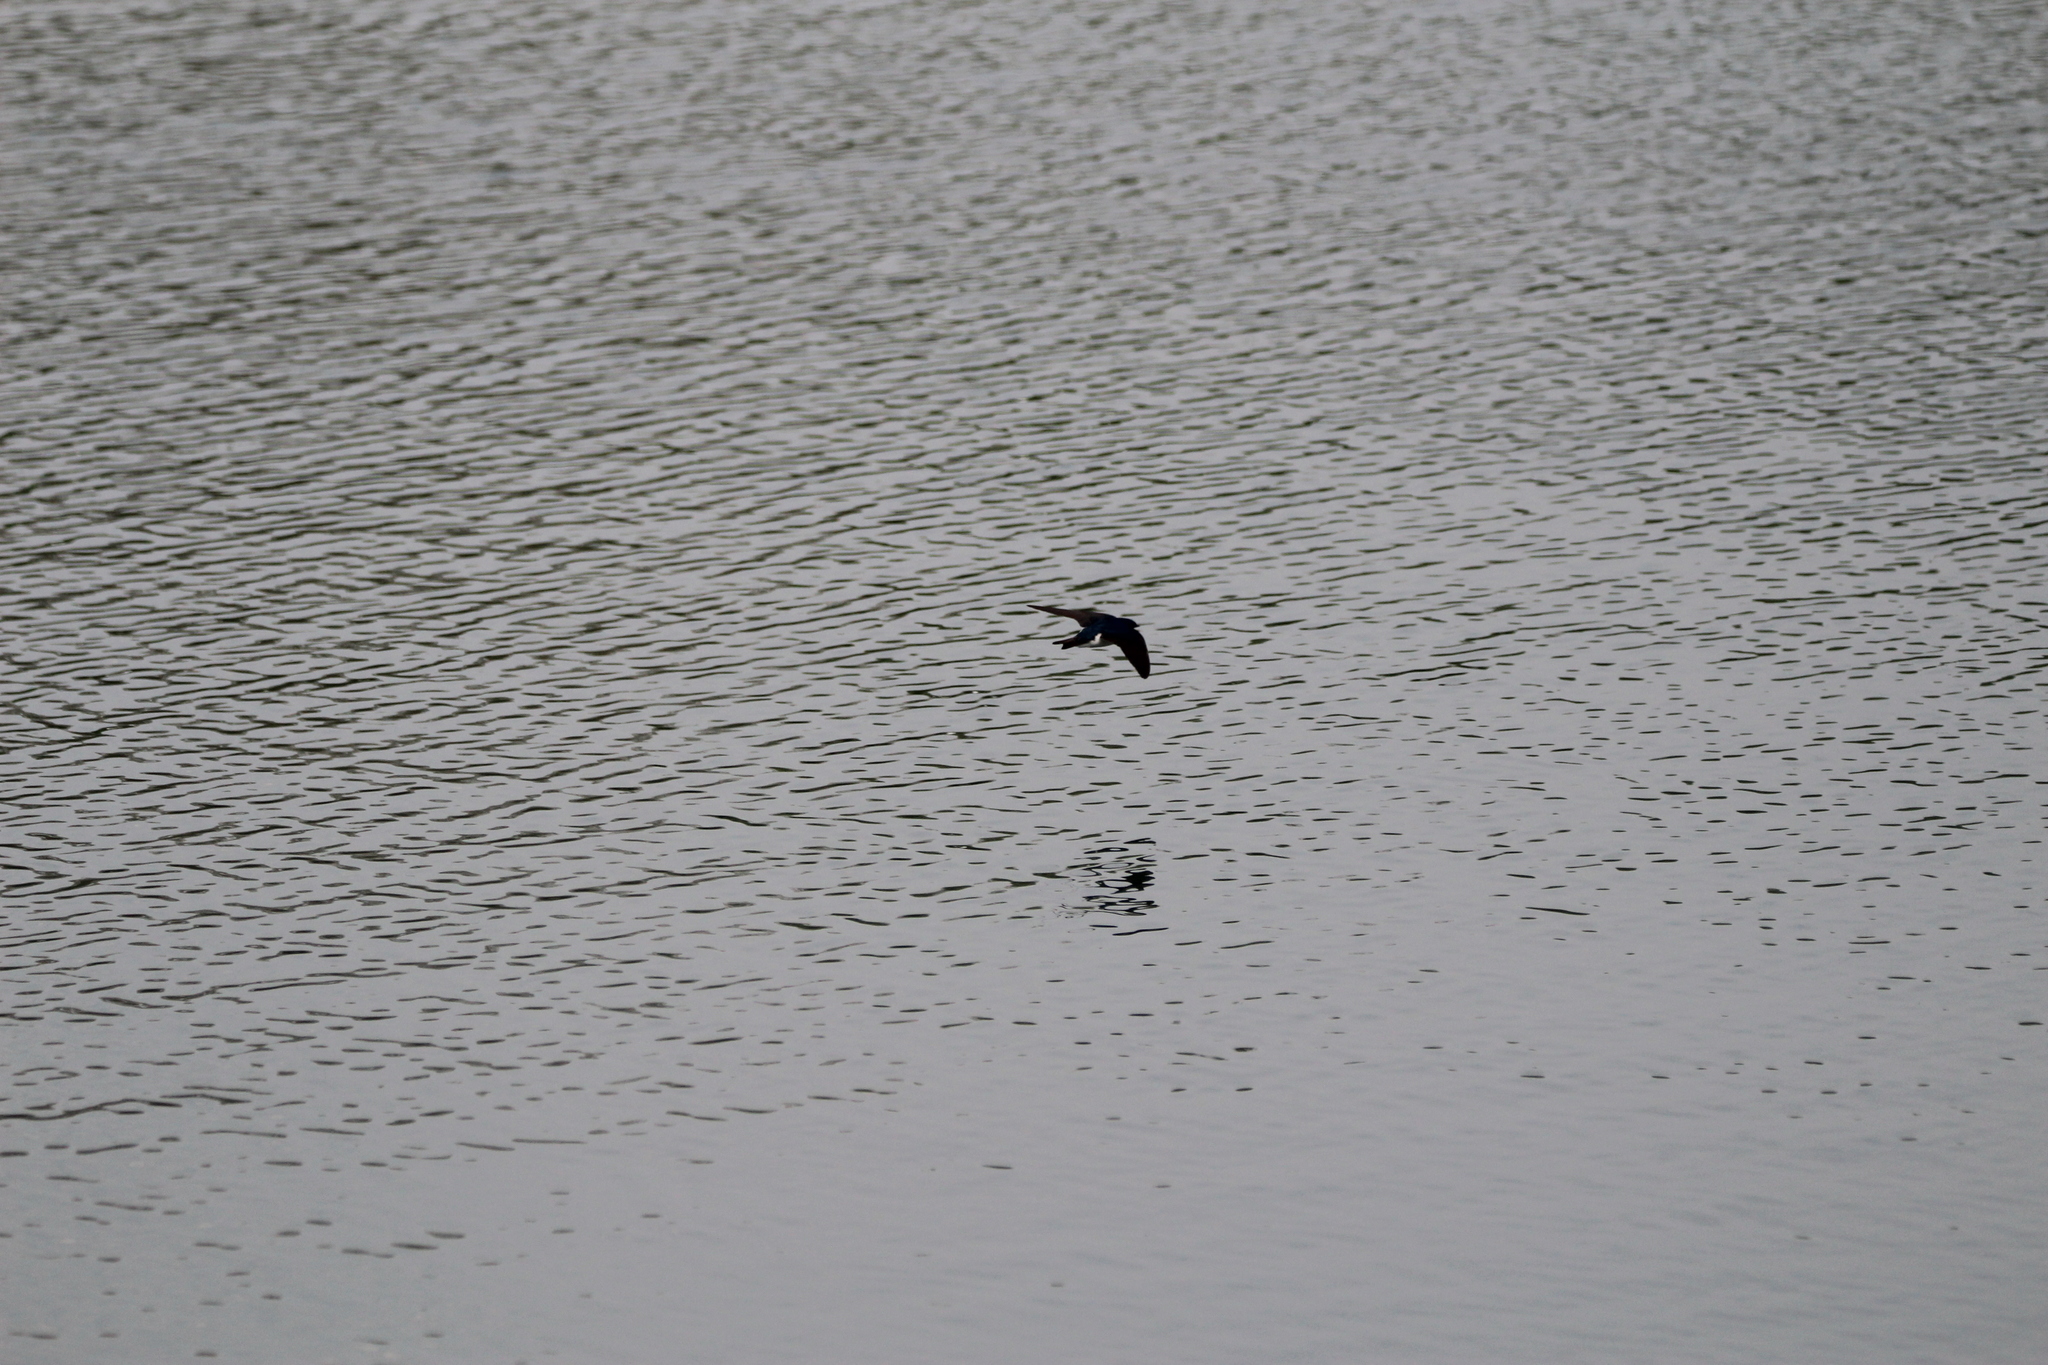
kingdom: Animalia
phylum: Chordata
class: Aves
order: Passeriformes
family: Hirundinidae
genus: Tachycineta
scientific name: Tachycineta bicolor
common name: Tree swallow
